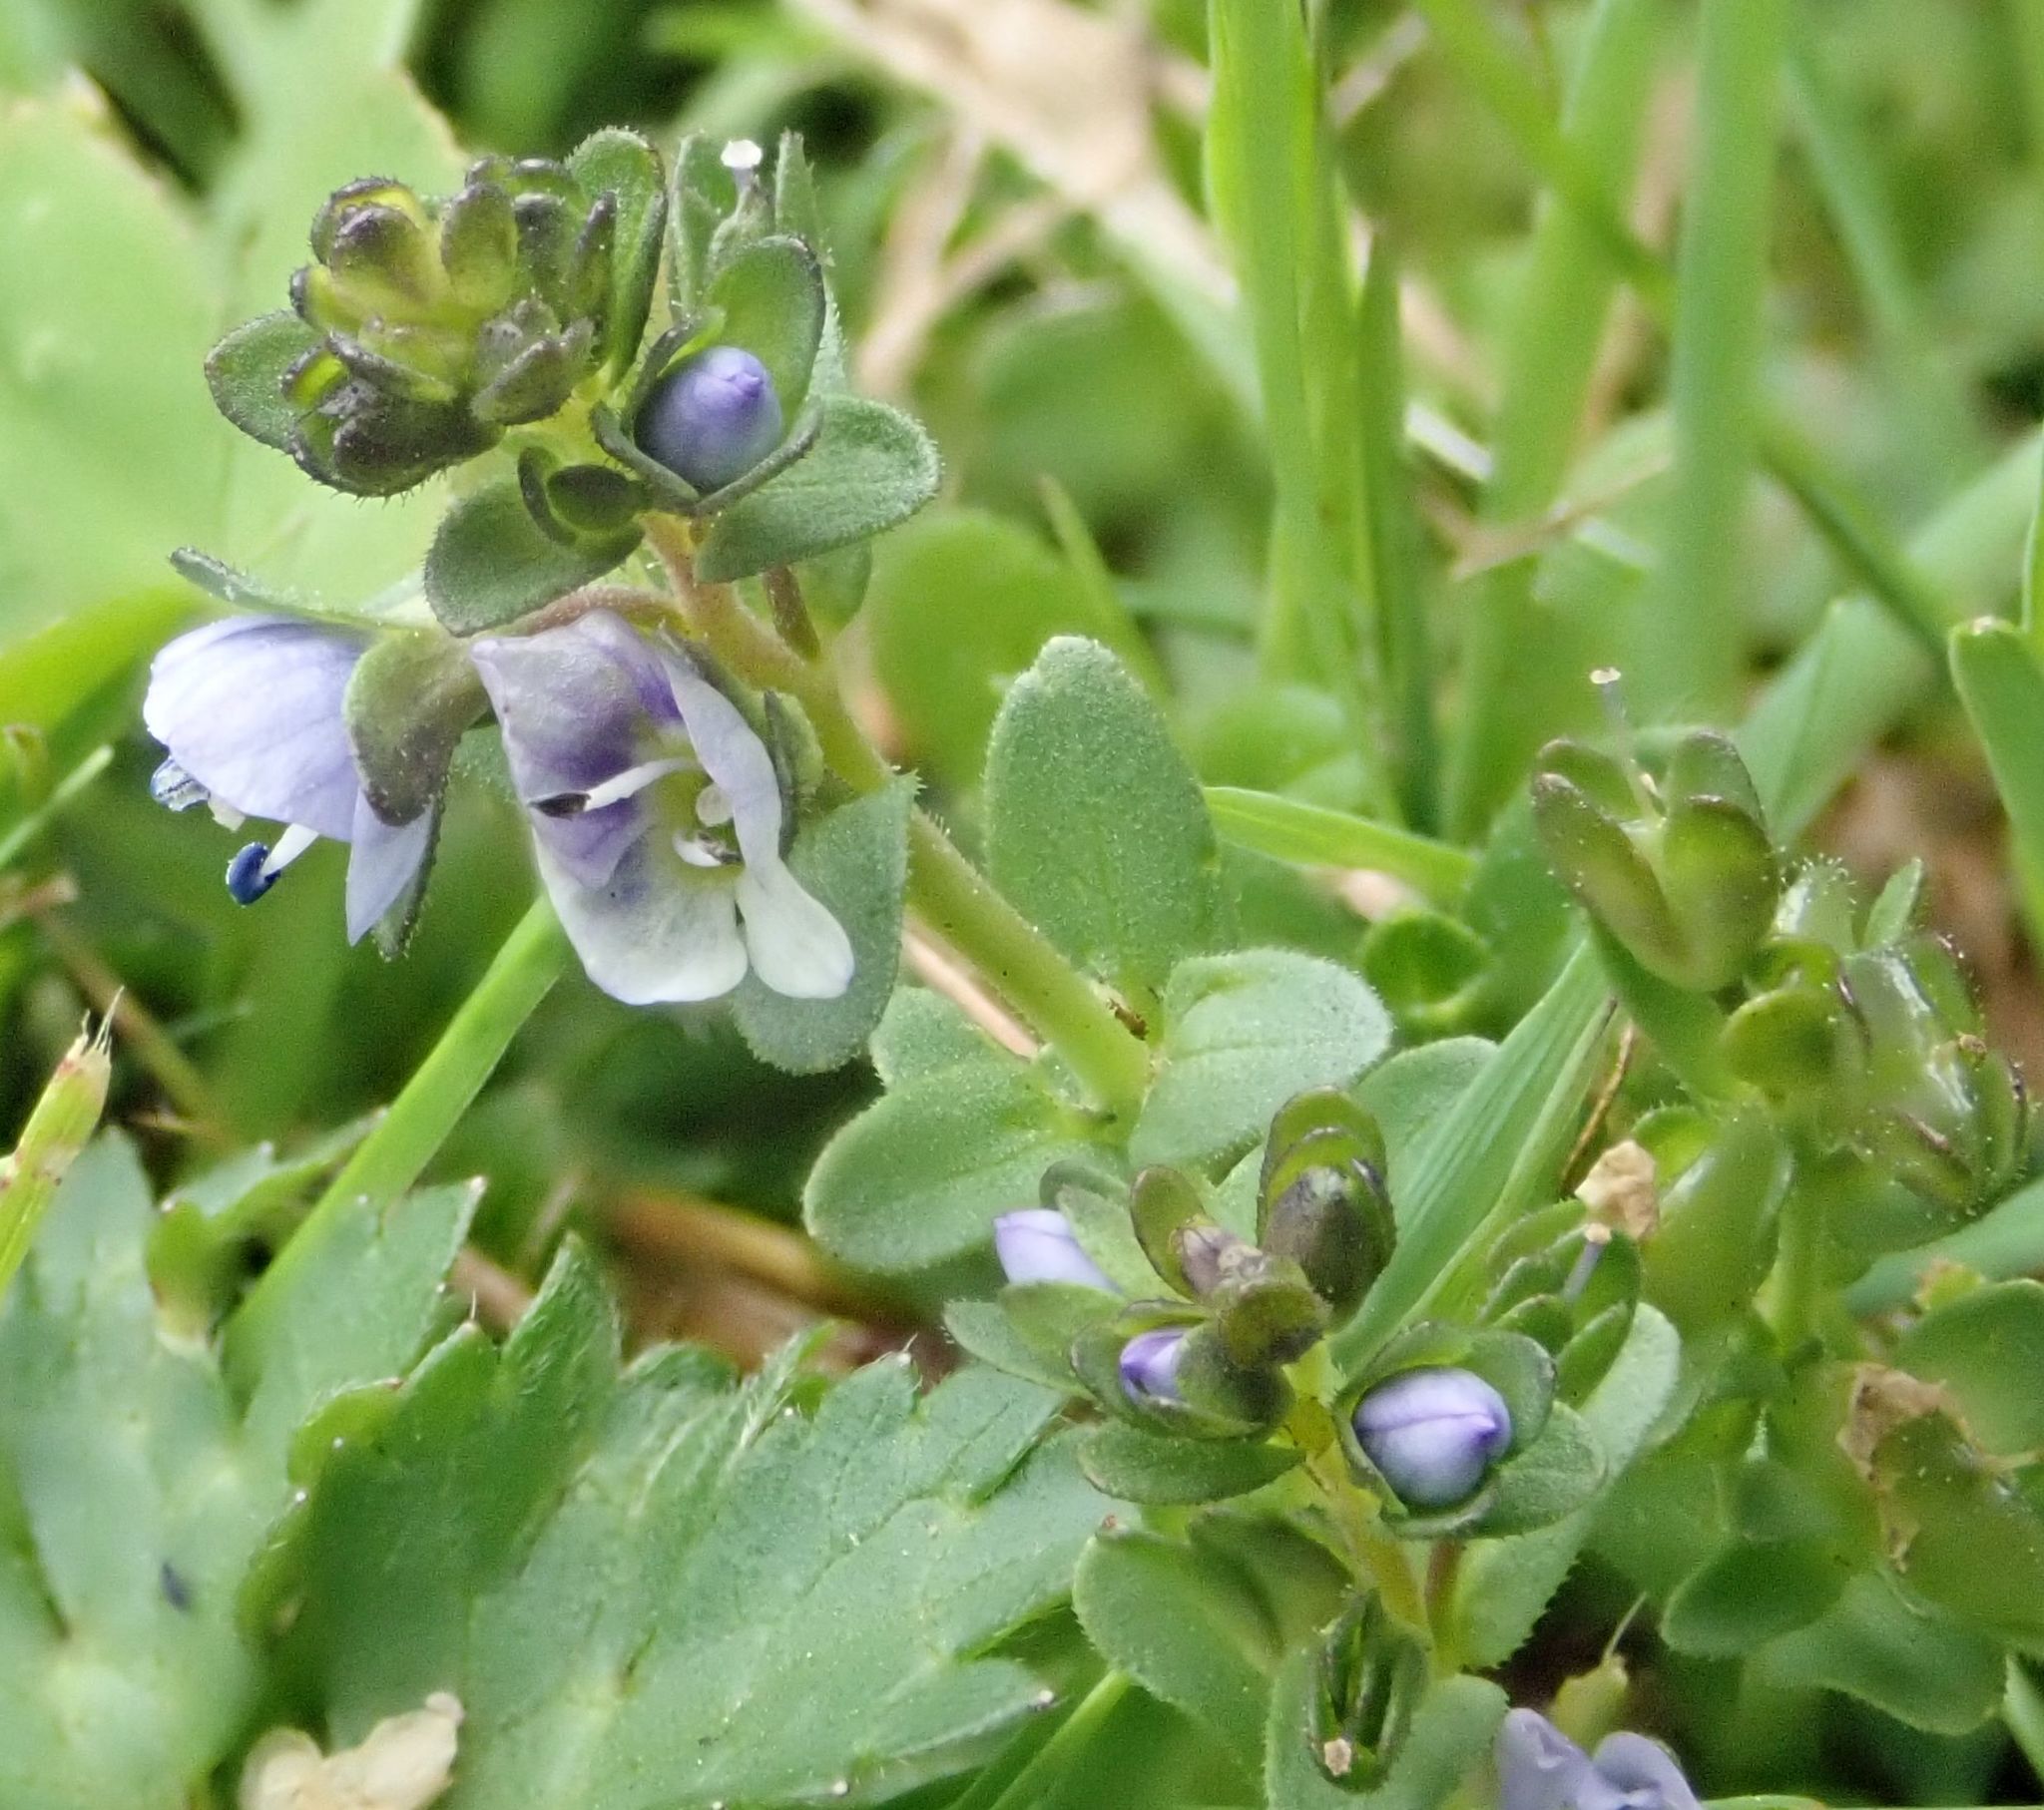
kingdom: Plantae
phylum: Tracheophyta
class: Magnoliopsida
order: Lamiales
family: Plantaginaceae
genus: Veronica
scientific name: Veronica serpyllifolia
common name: Thyme-leaved speedwell
